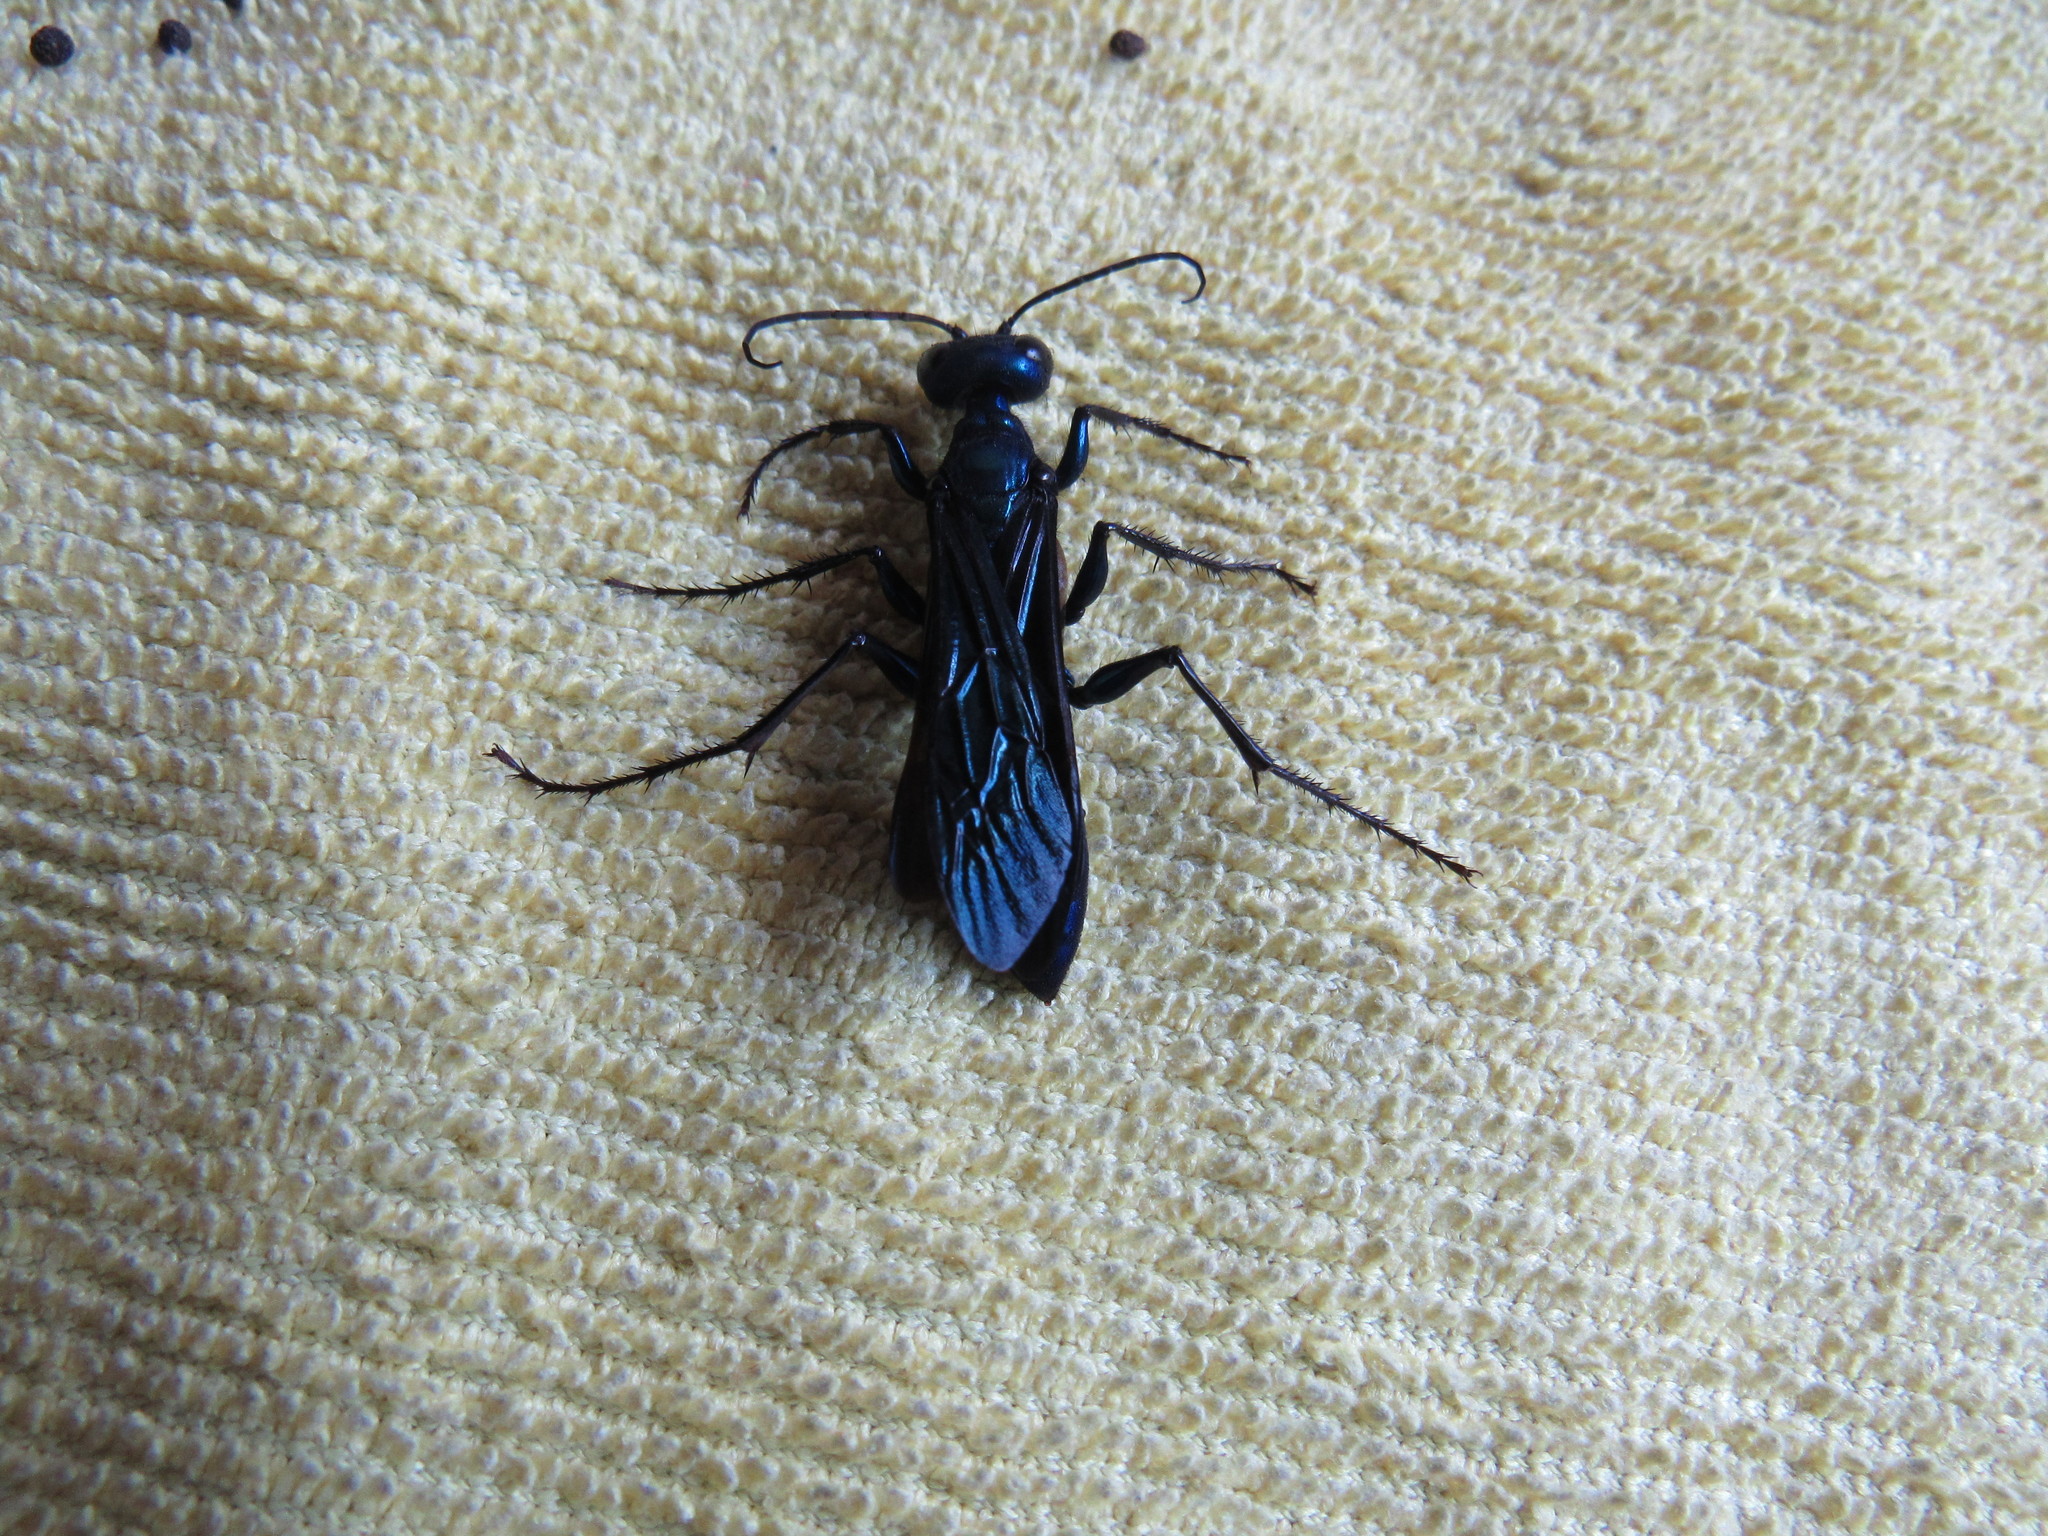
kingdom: Animalia
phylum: Arthropoda
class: Insecta
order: Hymenoptera
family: Sphecidae
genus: Chlorion
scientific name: Chlorion
